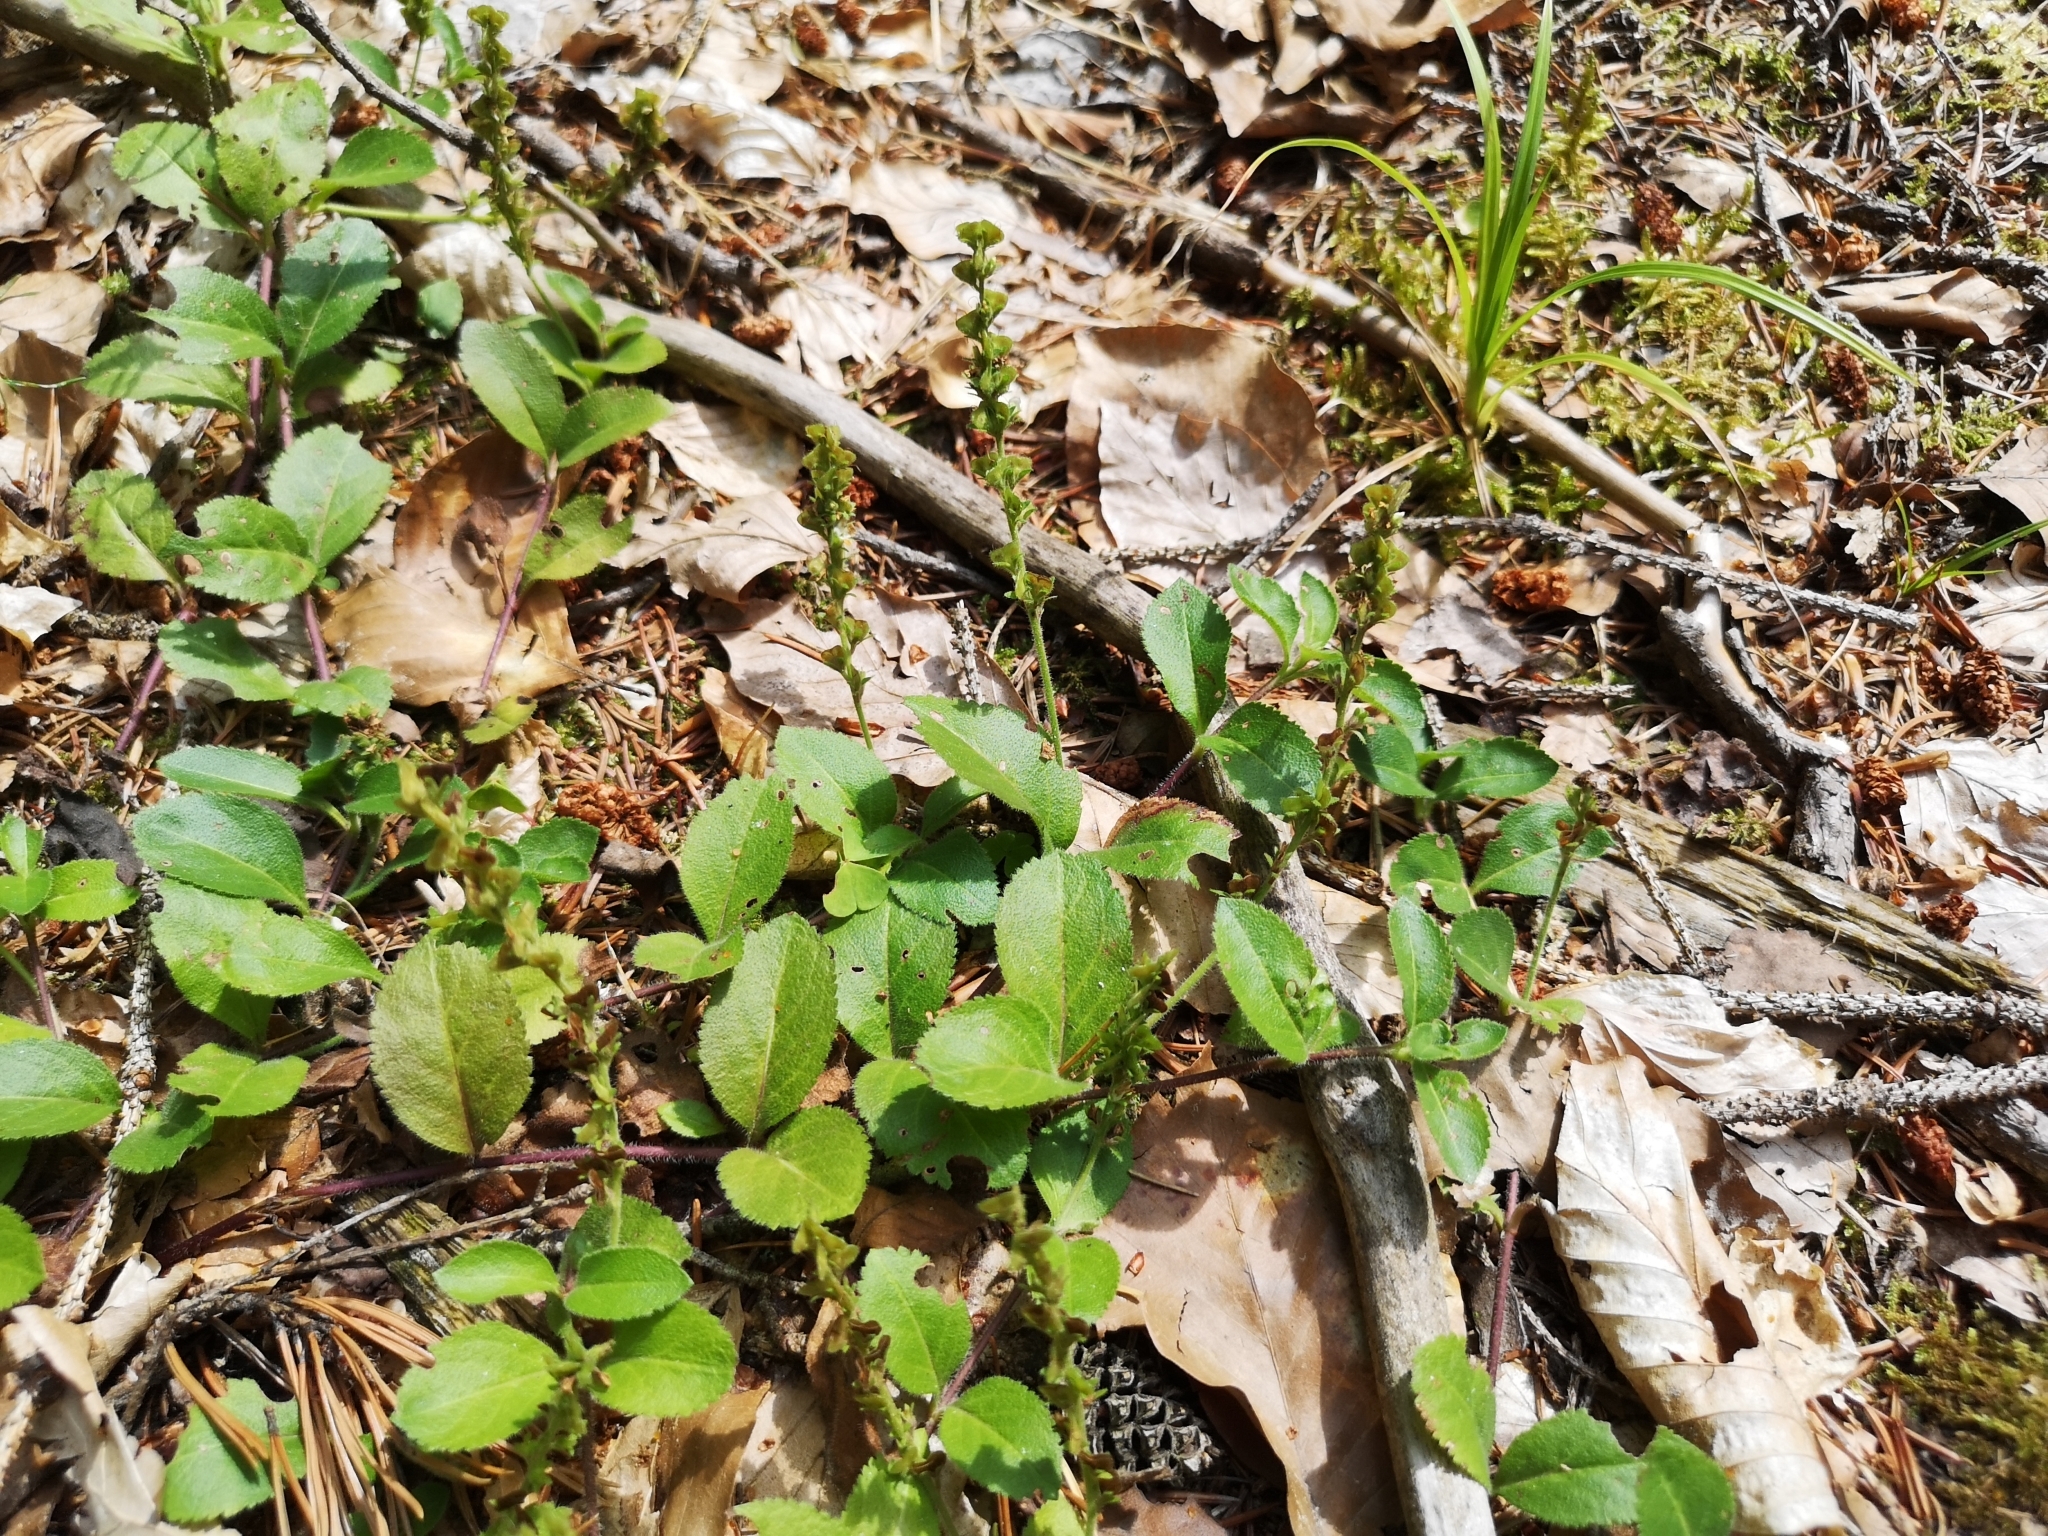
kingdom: Plantae
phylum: Tracheophyta
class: Magnoliopsida
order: Lamiales
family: Plantaginaceae
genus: Veronica
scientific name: Veronica officinalis
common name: Common speedwell
